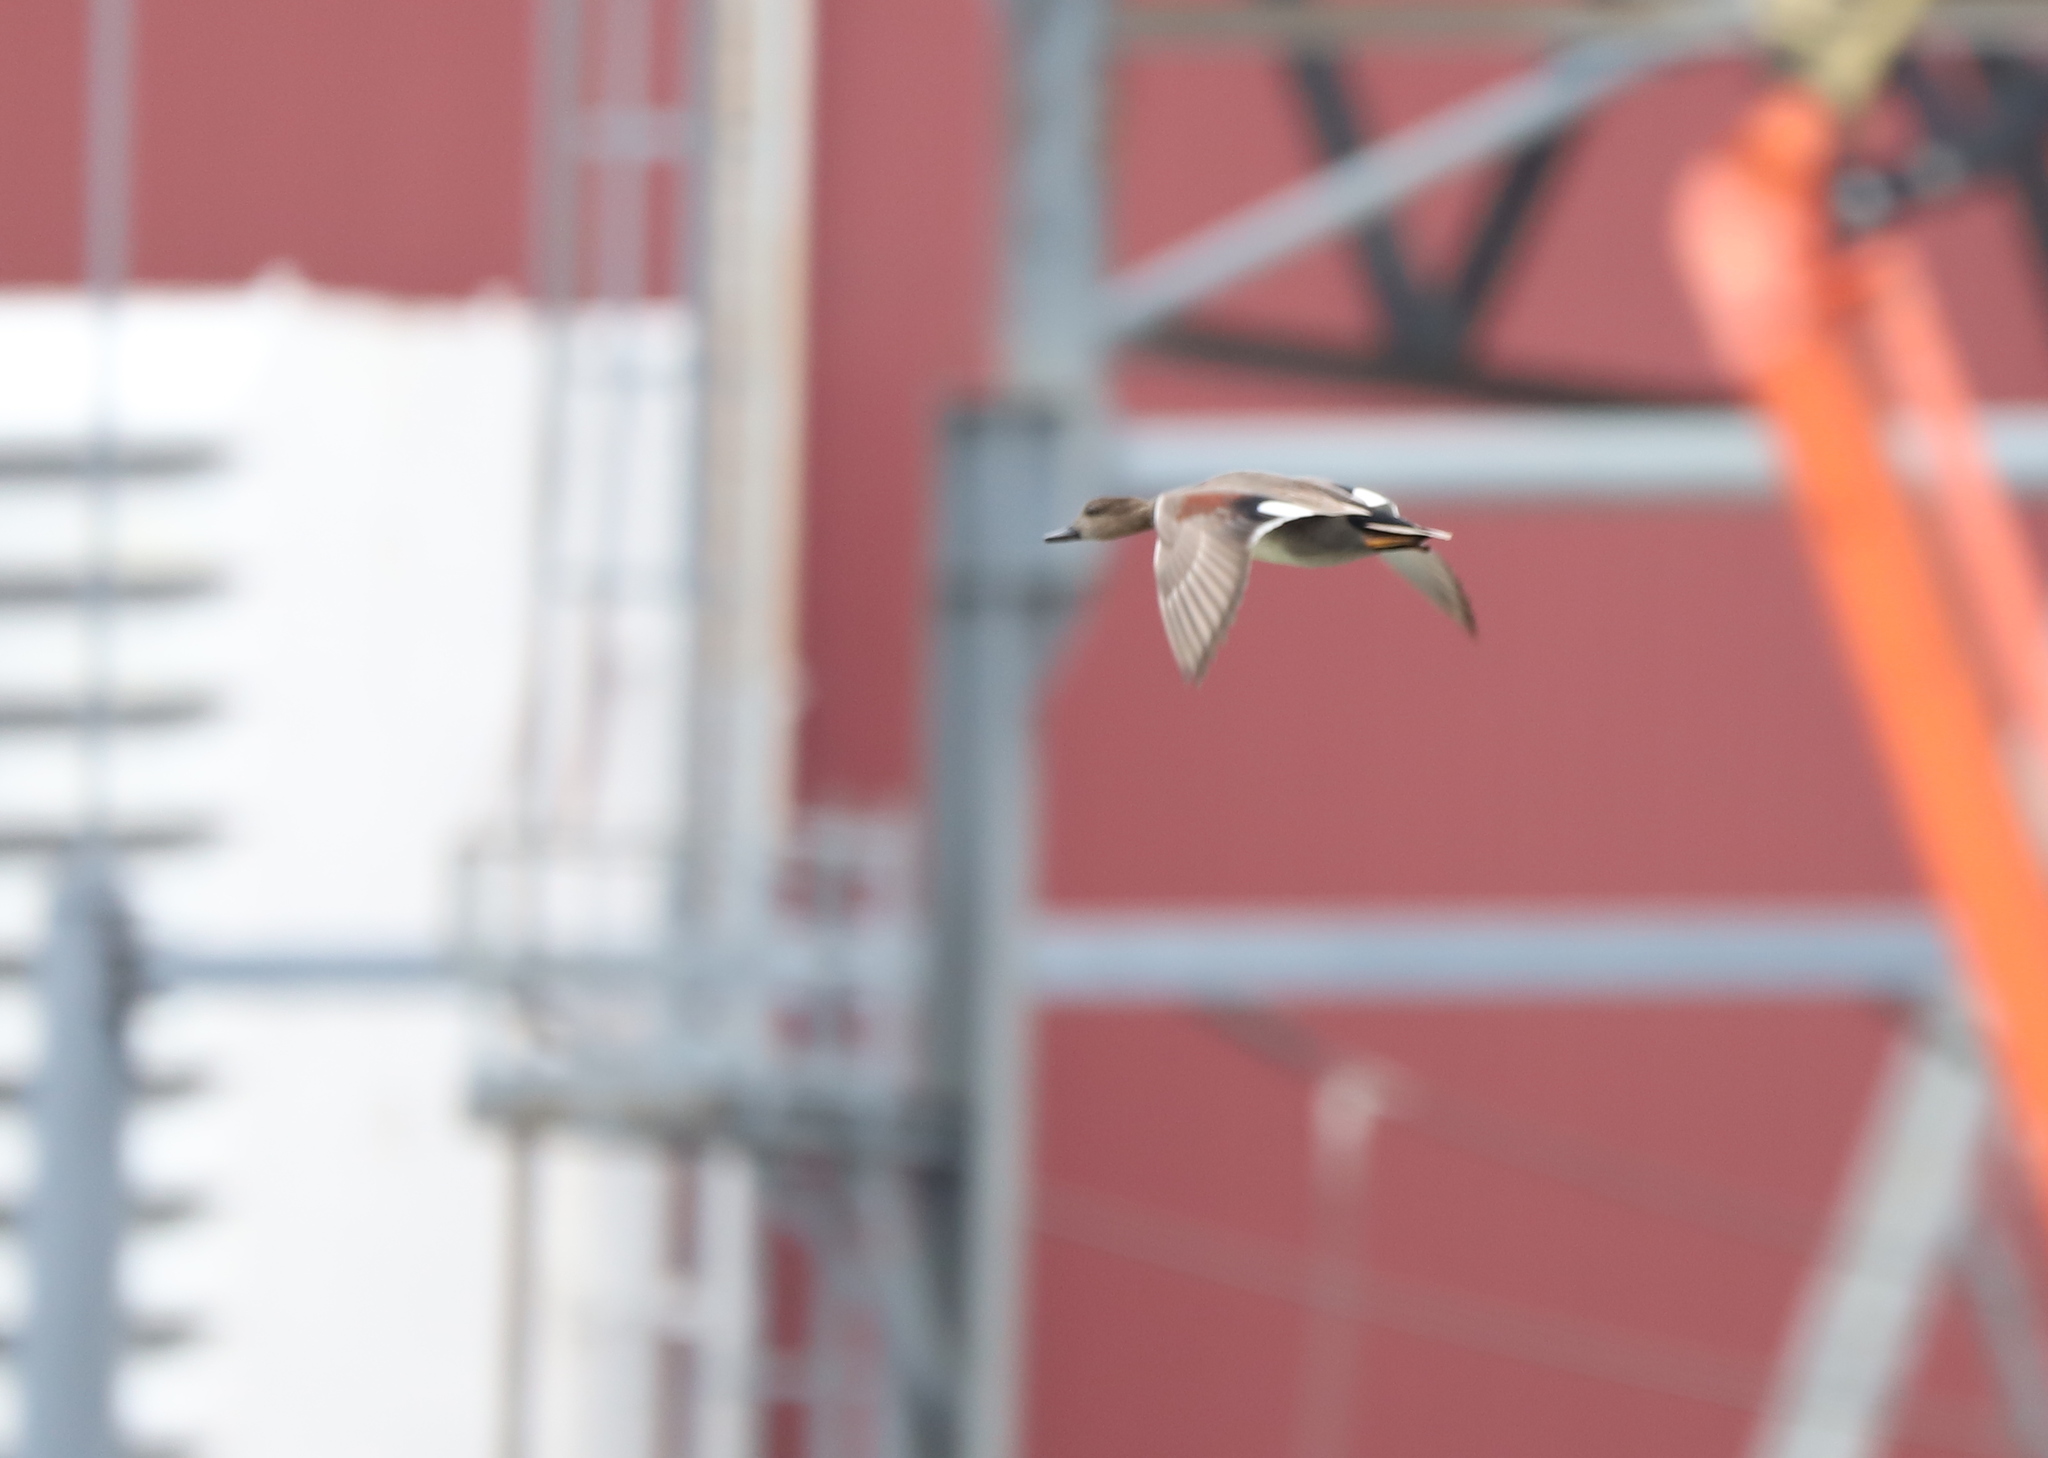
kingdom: Animalia
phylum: Chordata
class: Aves
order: Anseriformes
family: Anatidae
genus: Mareca
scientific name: Mareca strepera
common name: Gadwall
